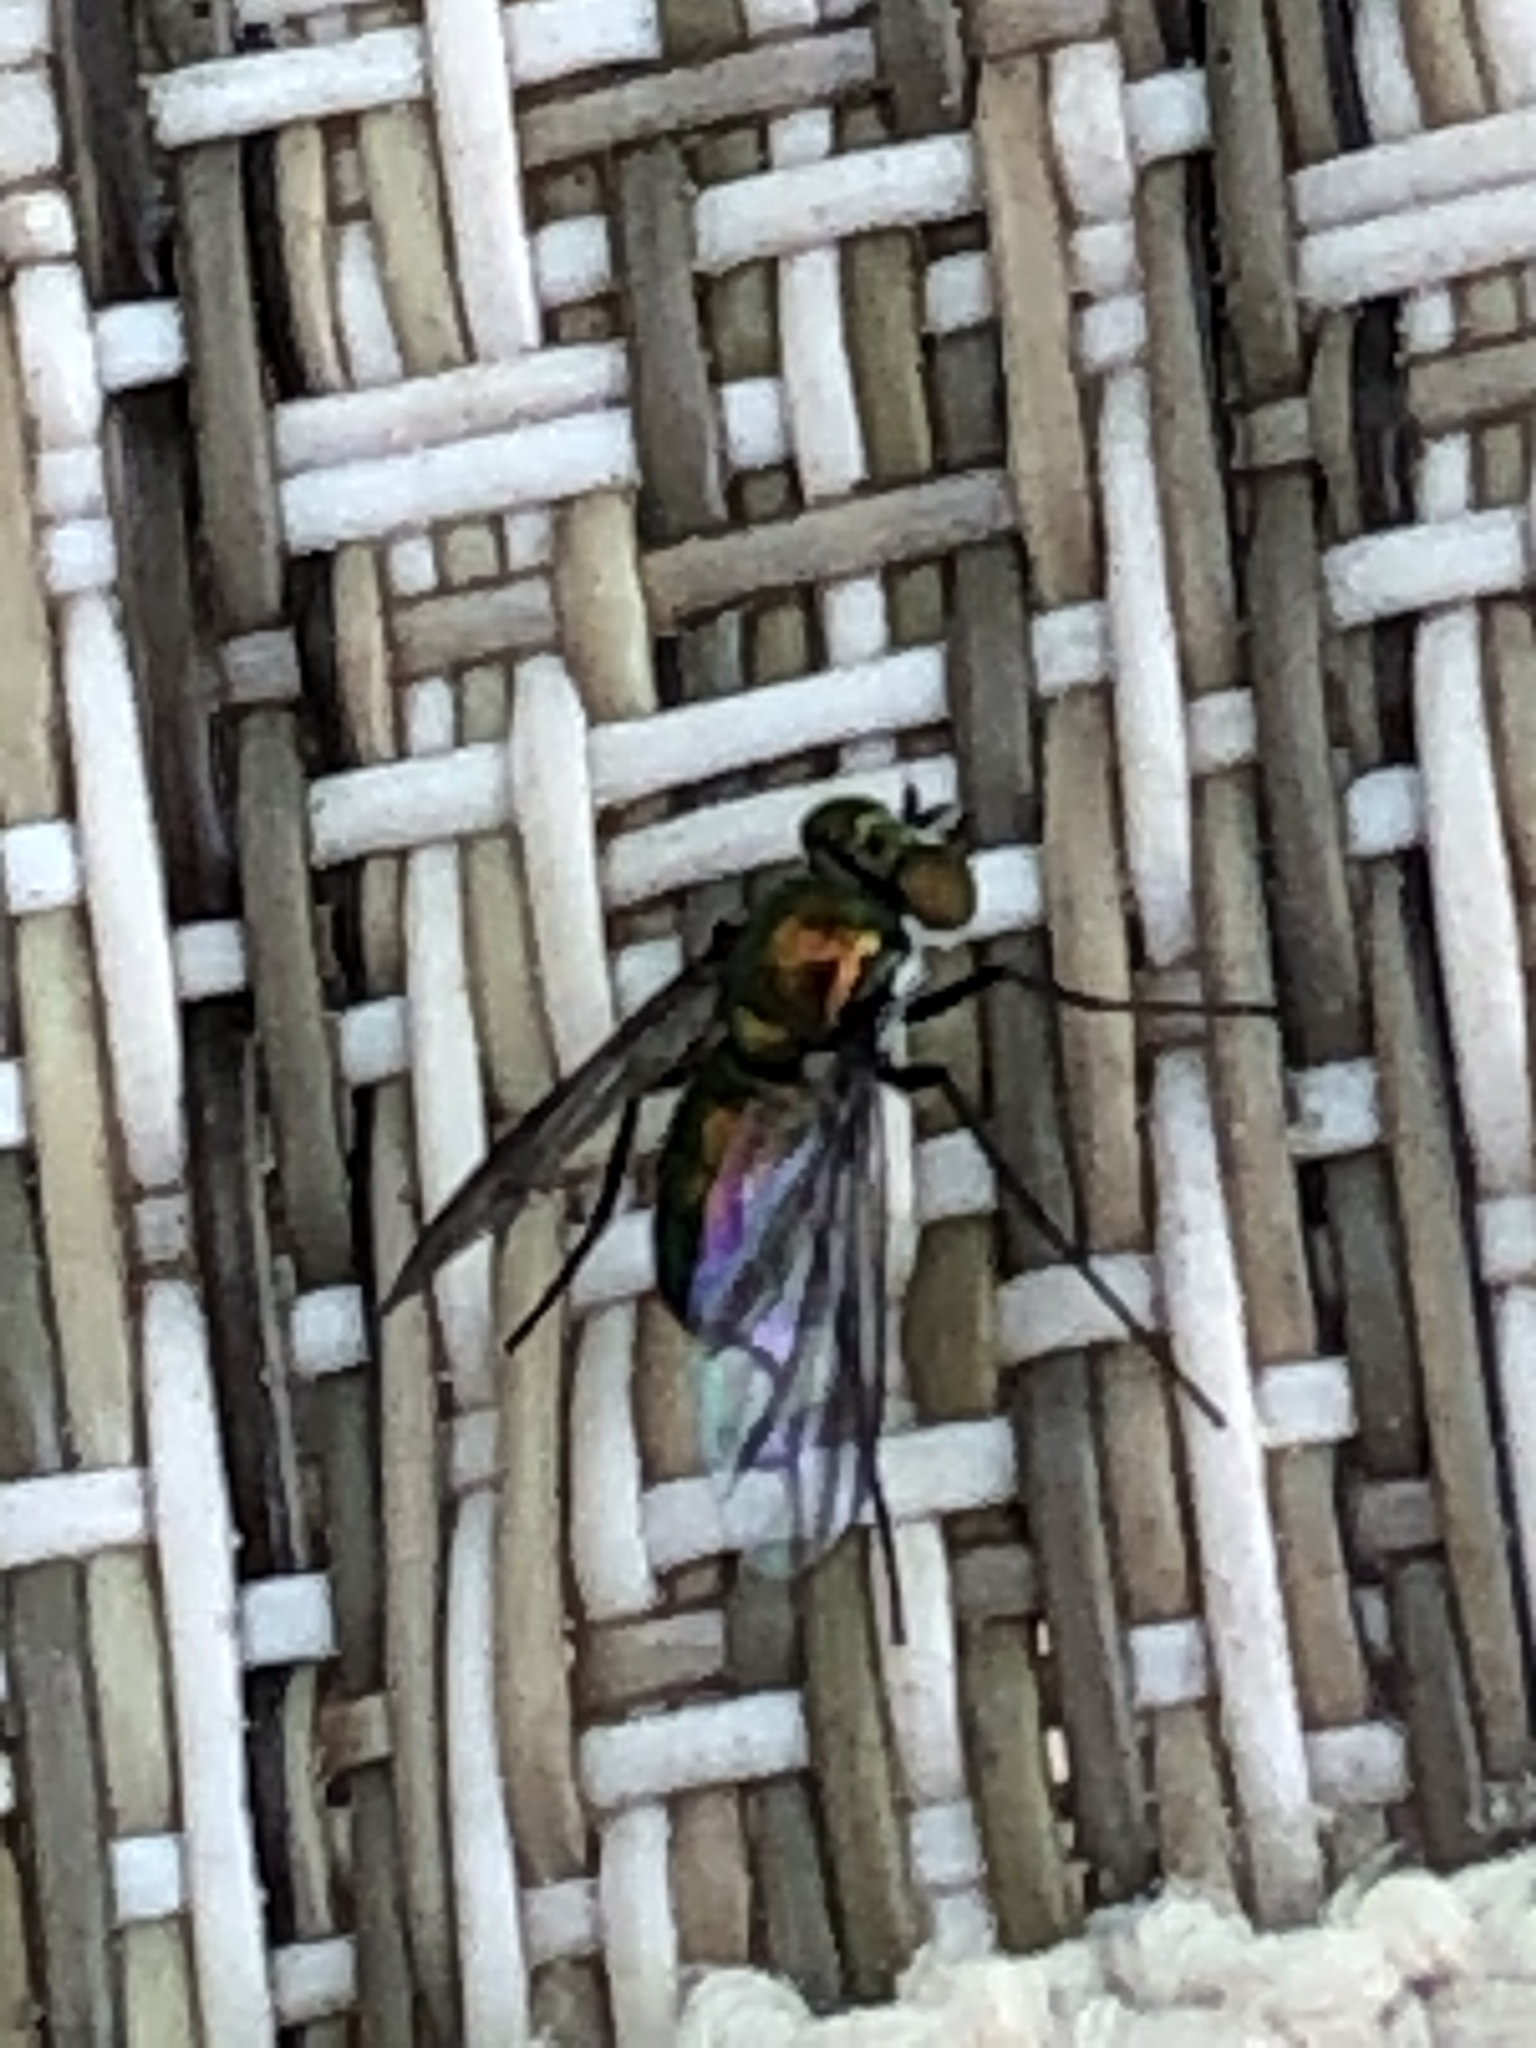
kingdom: Animalia
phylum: Arthropoda
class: Insecta
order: Diptera
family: Dolichopodidae
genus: Condylostylus
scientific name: Condylostylus patibulatus
